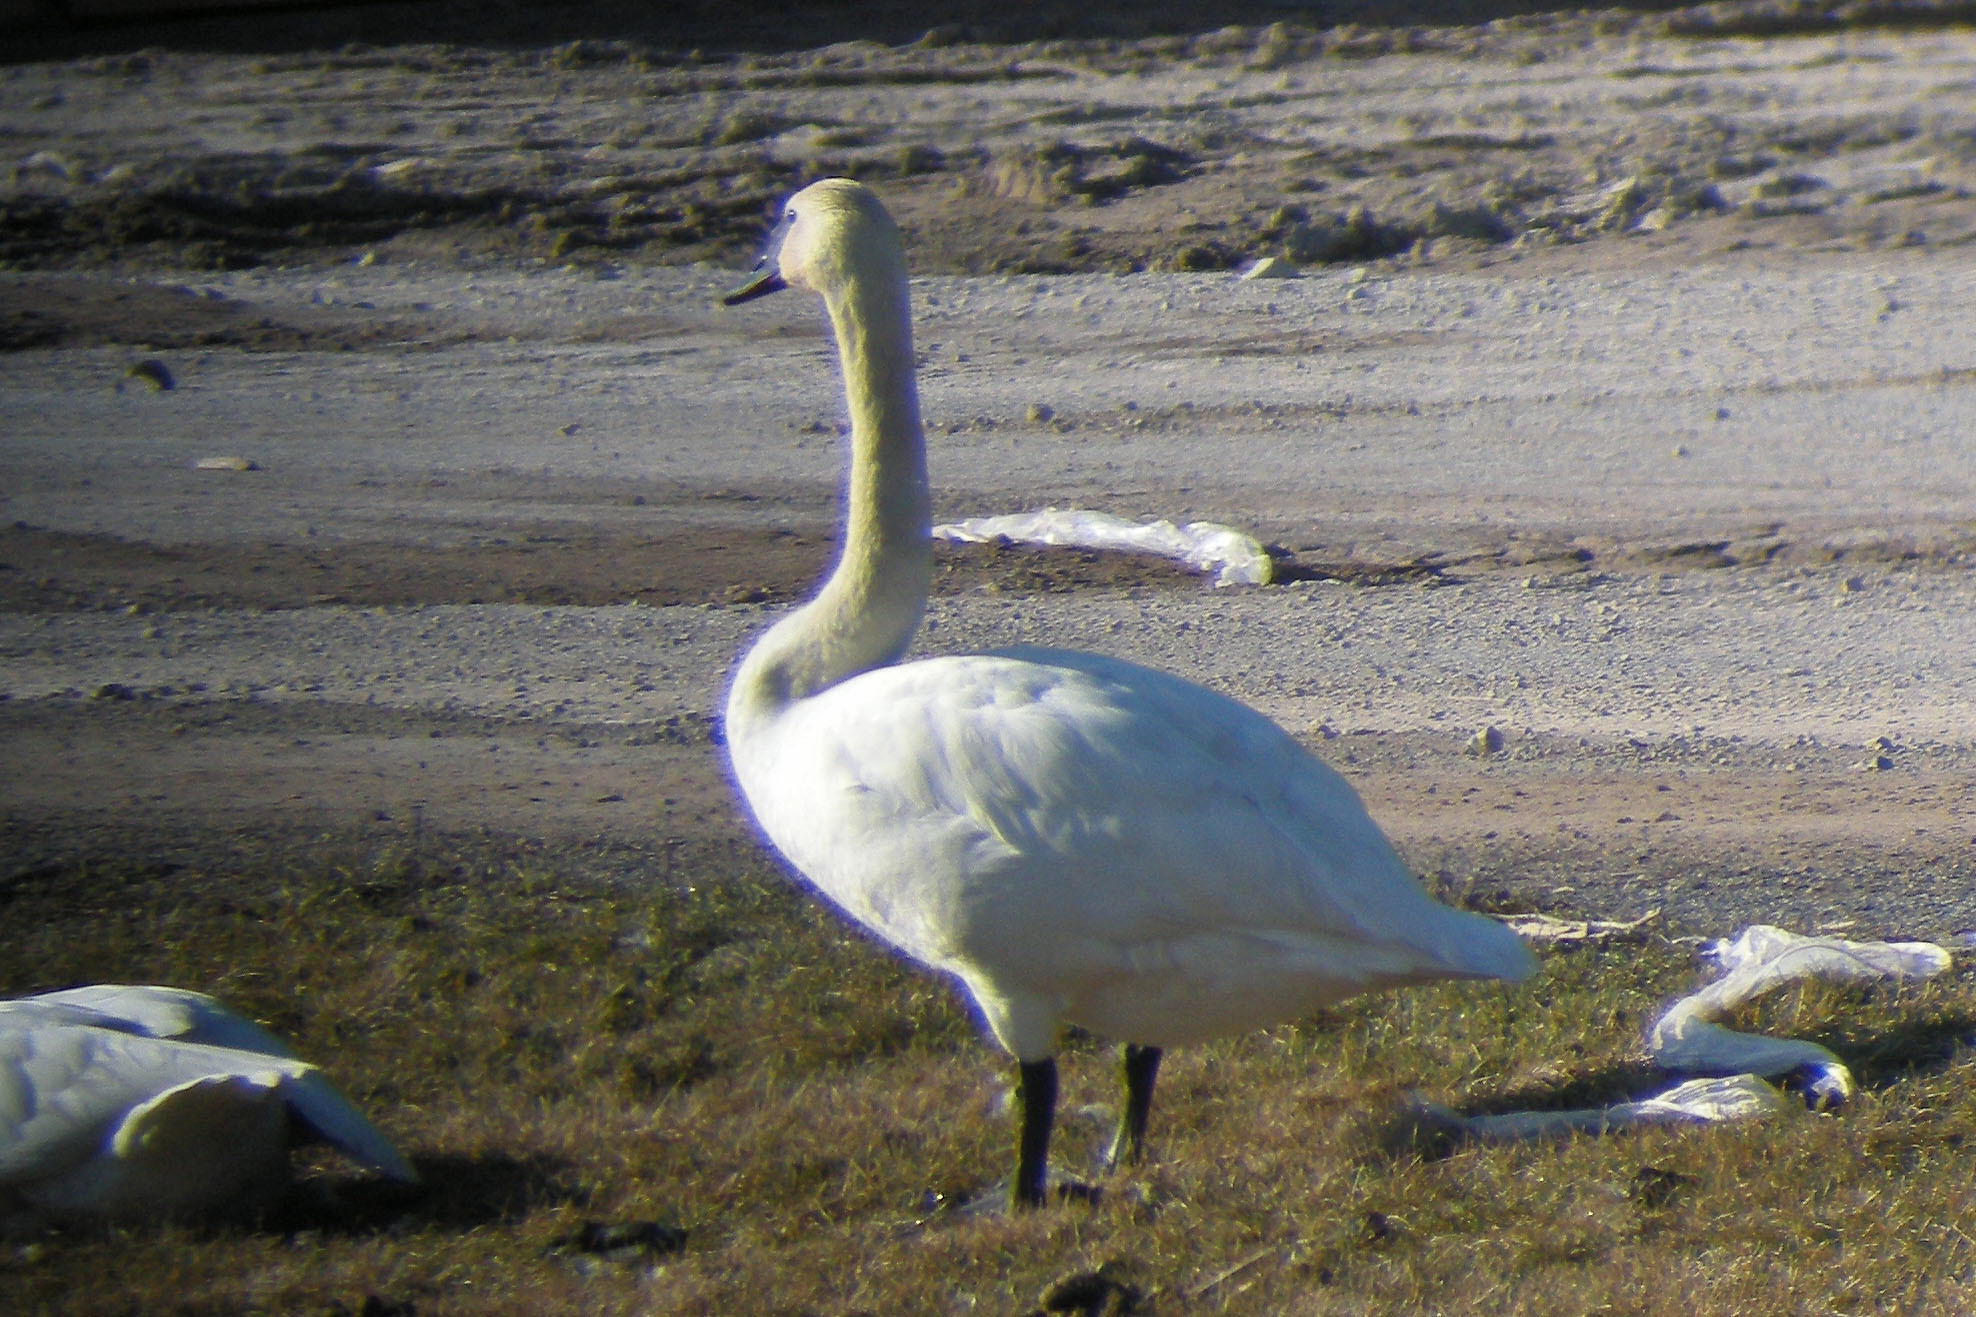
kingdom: Animalia
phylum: Chordata
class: Aves
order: Anseriformes
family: Anatidae
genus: Cygnus
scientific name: Cygnus buccinator
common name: Trumpeter swan
